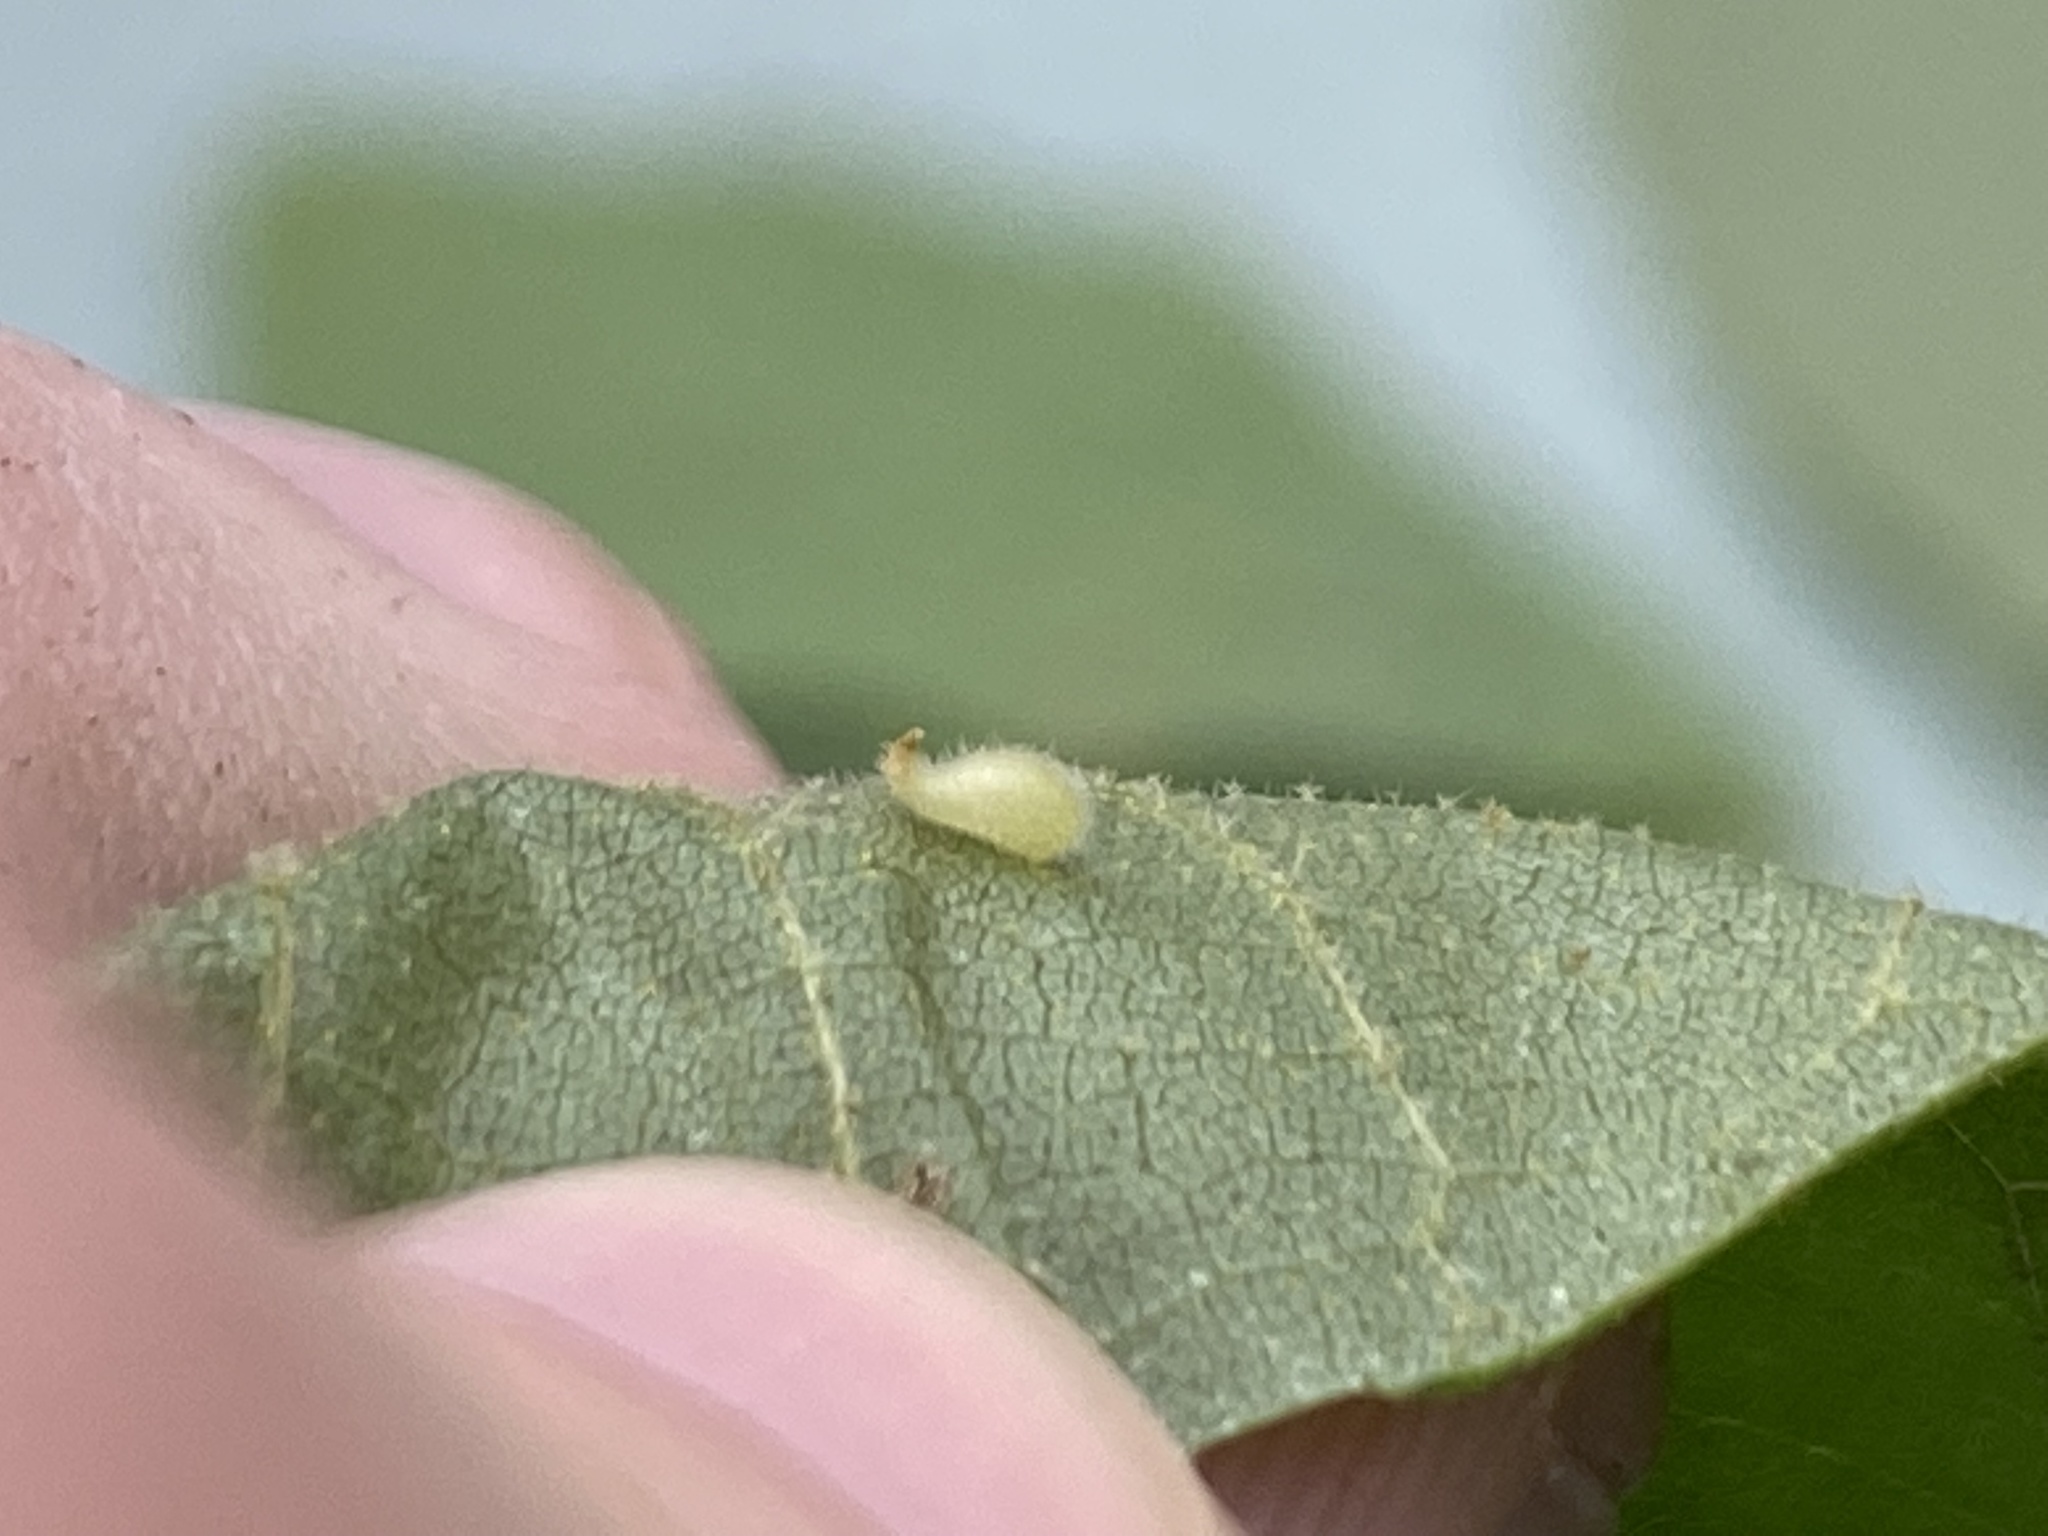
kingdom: Animalia
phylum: Arthropoda
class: Insecta
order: Diptera
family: Cecidomyiidae
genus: Caryomyia
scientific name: Caryomyia eumaris
